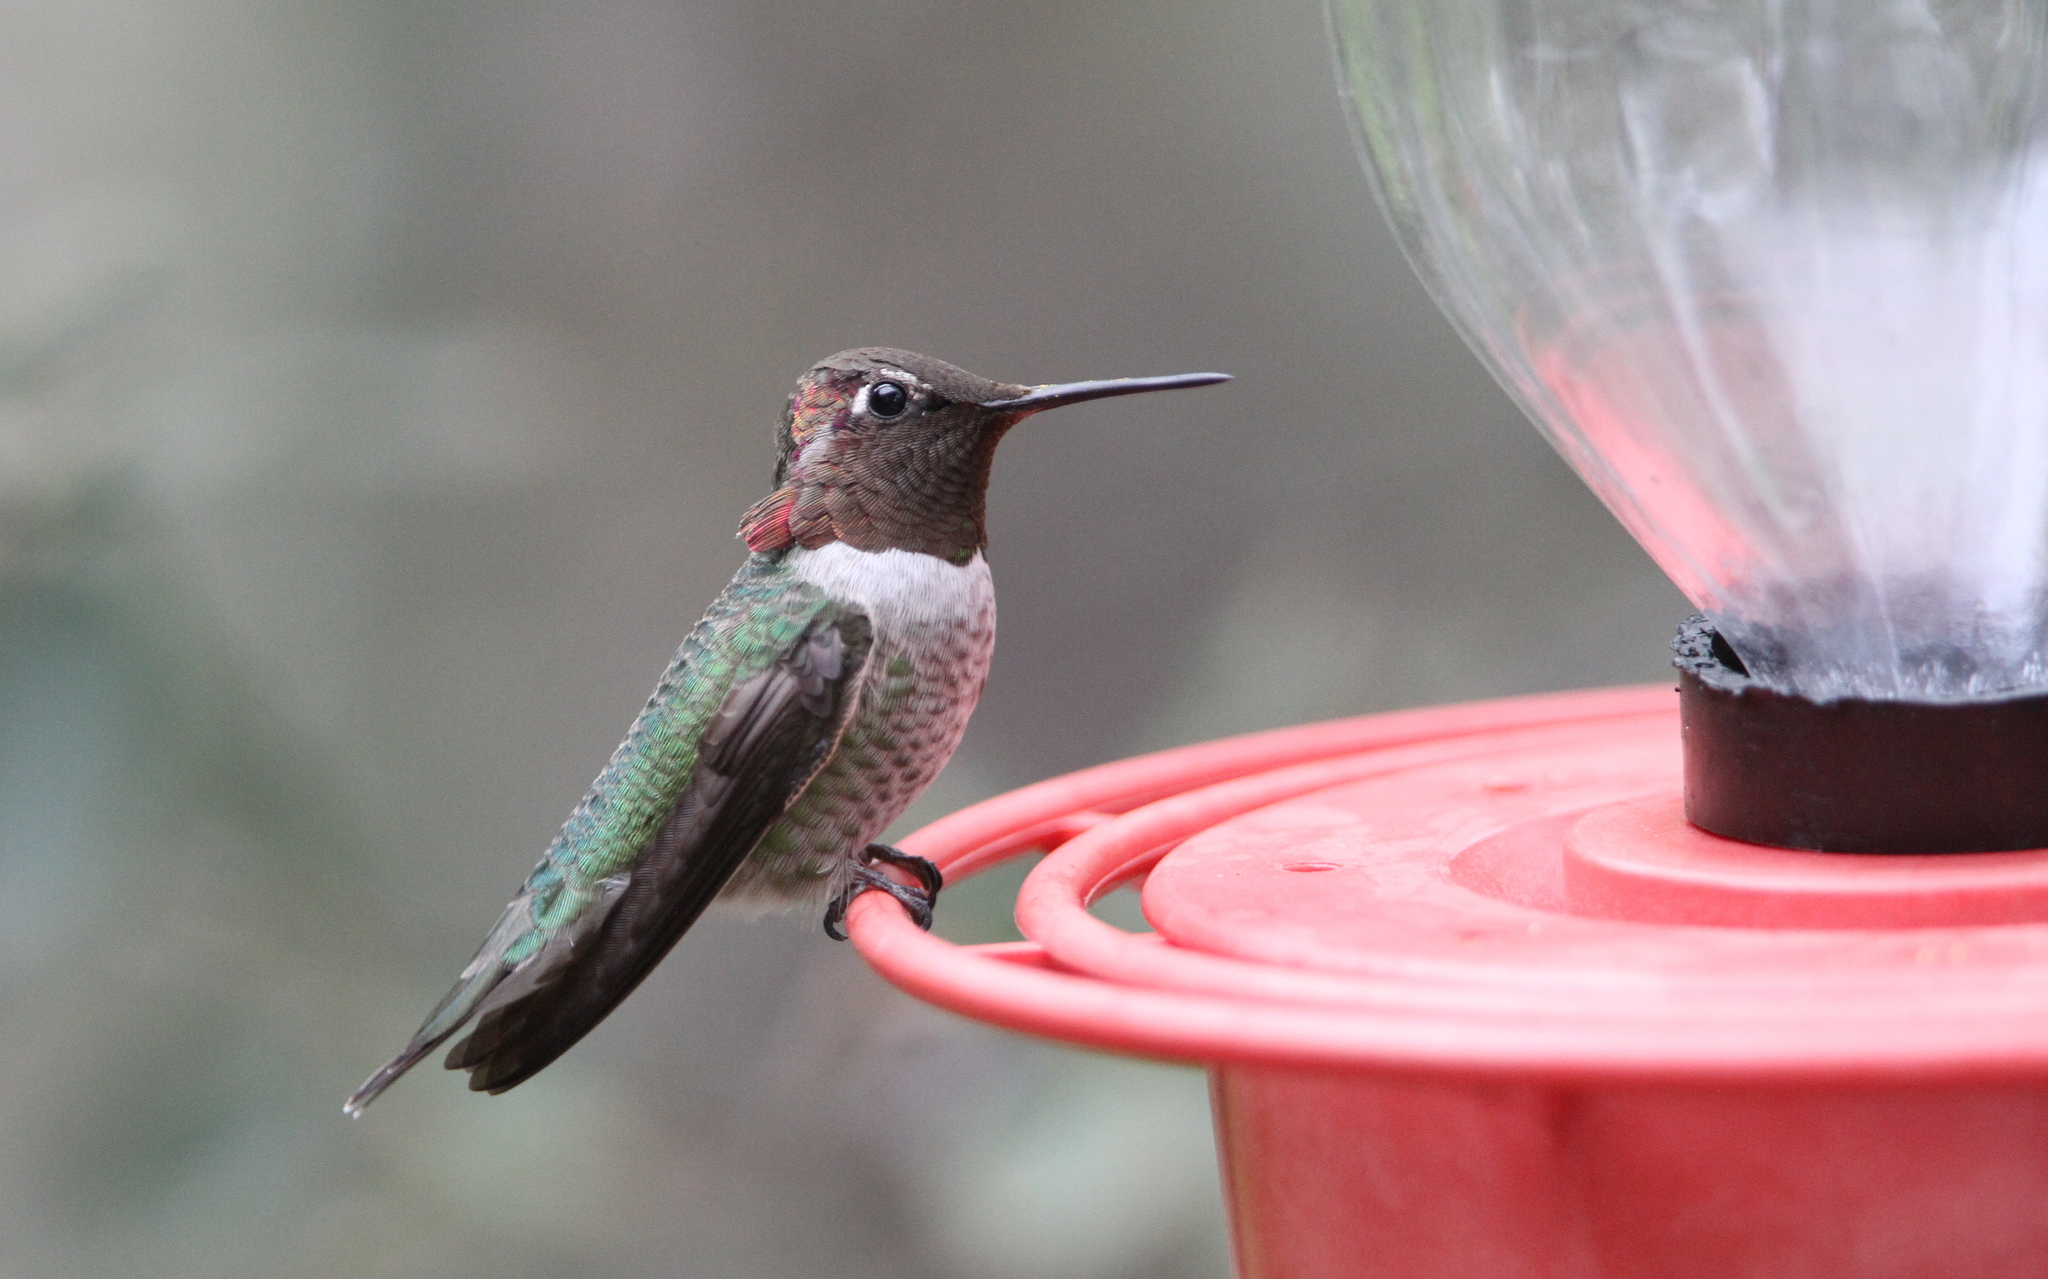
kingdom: Animalia
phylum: Chordata
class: Aves
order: Apodiformes
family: Trochilidae
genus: Calypte
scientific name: Calypte anna
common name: Anna's hummingbird
